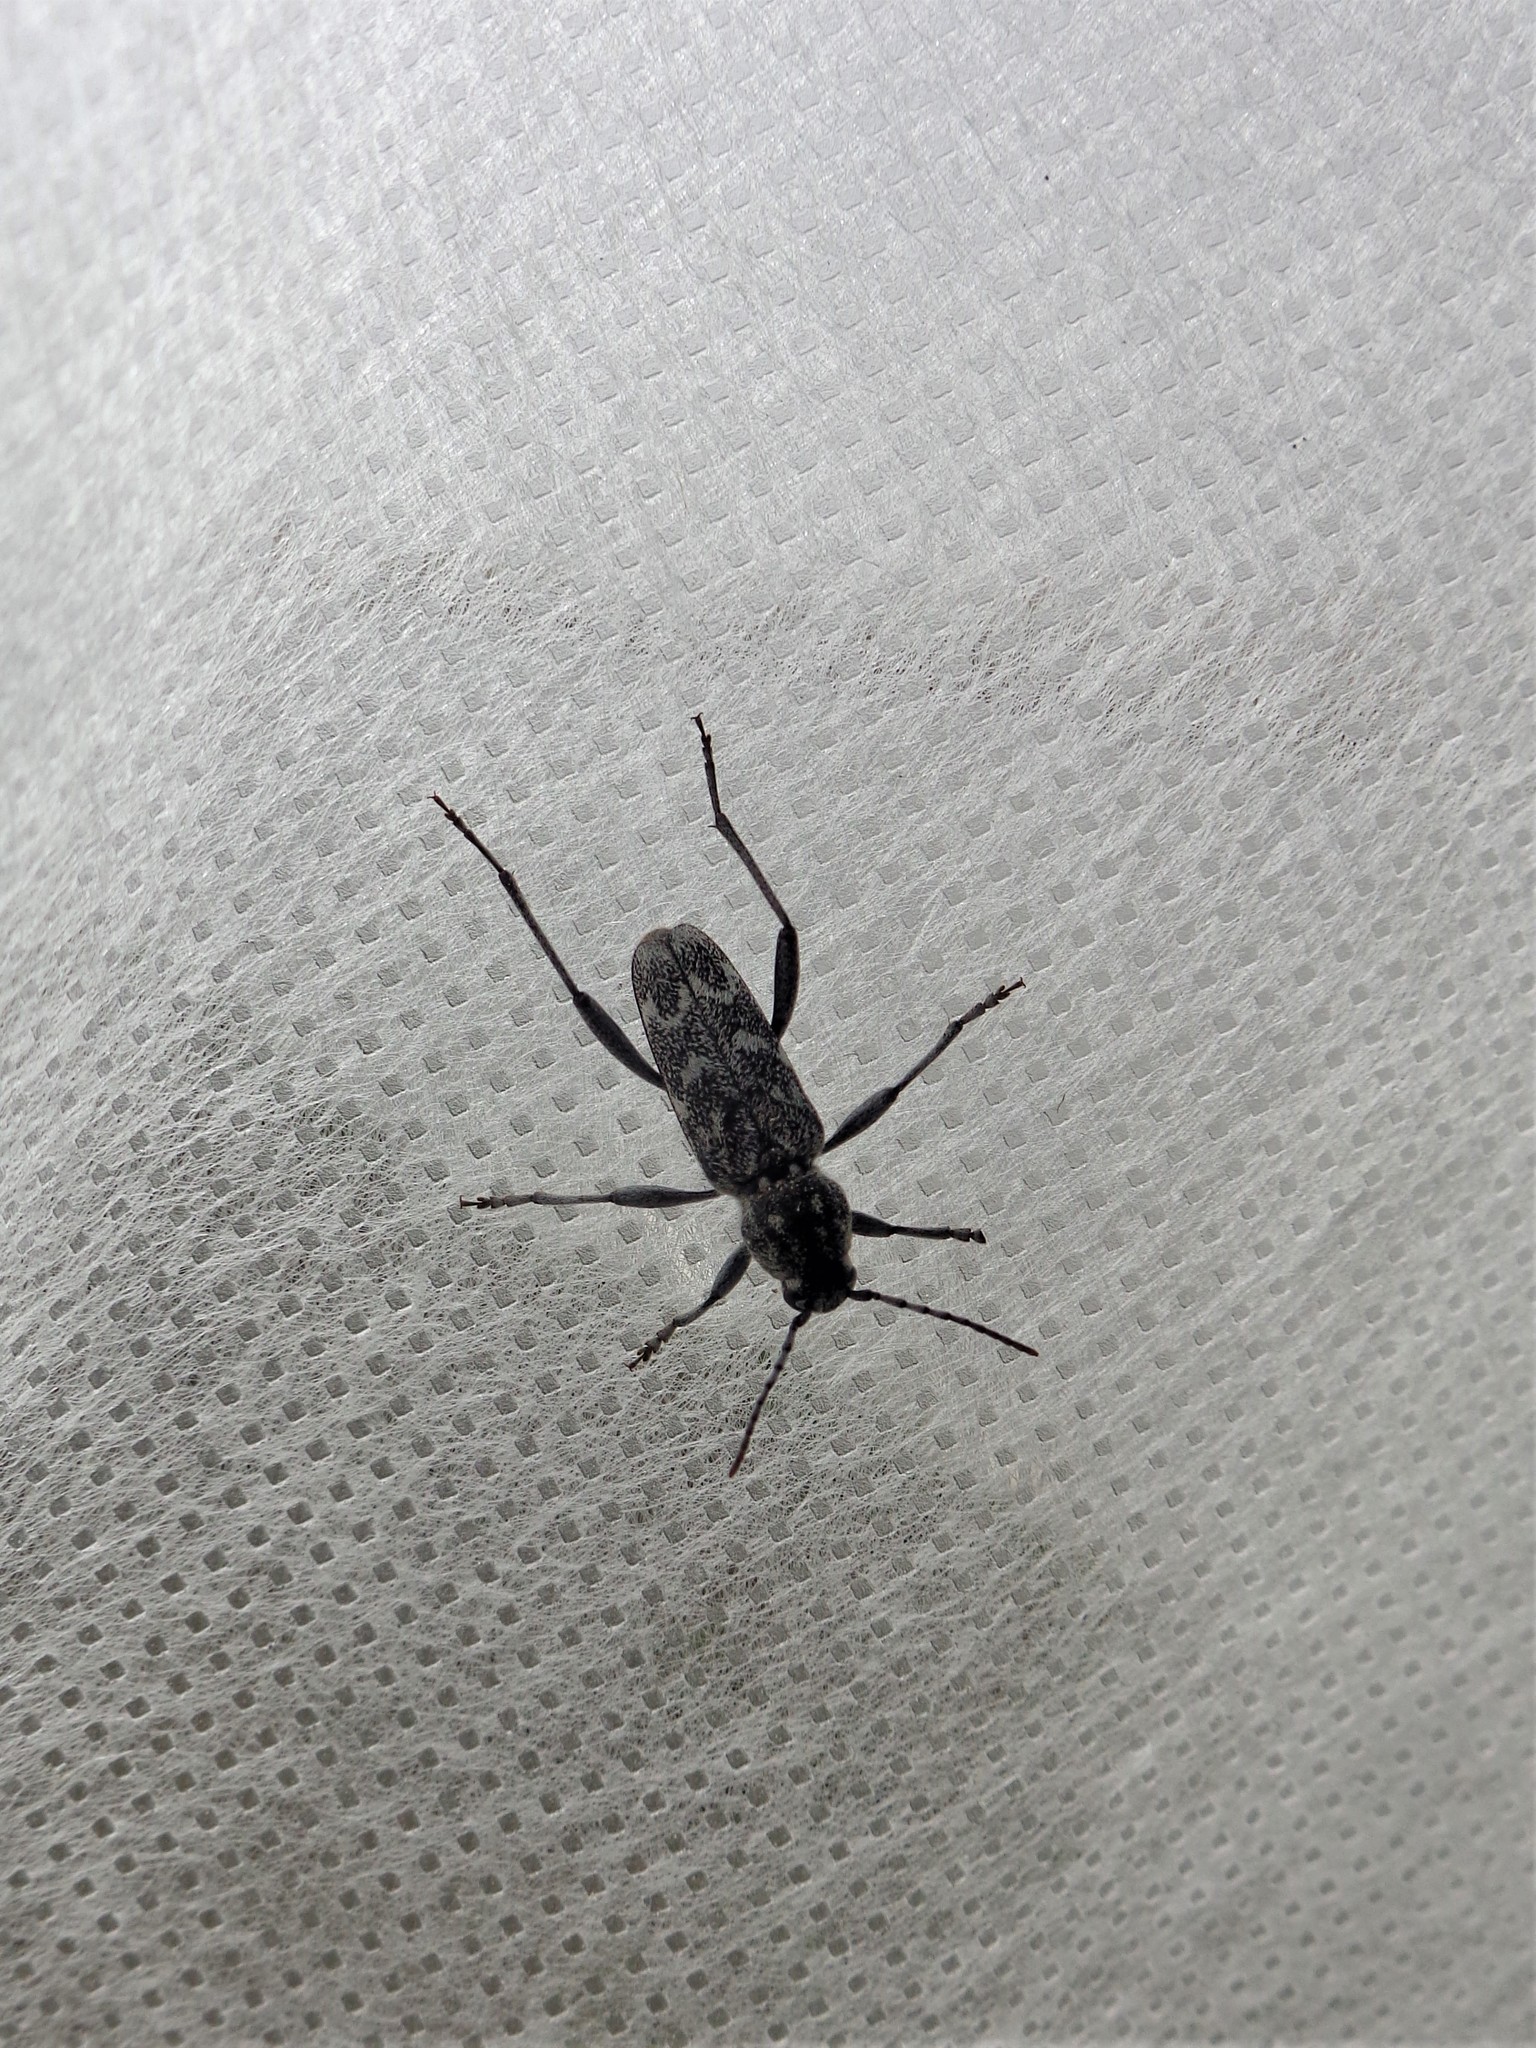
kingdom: Animalia
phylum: Arthropoda
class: Insecta
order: Coleoptera
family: Cerambycidae
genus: Xylotrechus
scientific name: Xylotrechus rusticus
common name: Grey tiger long-horned beetle
